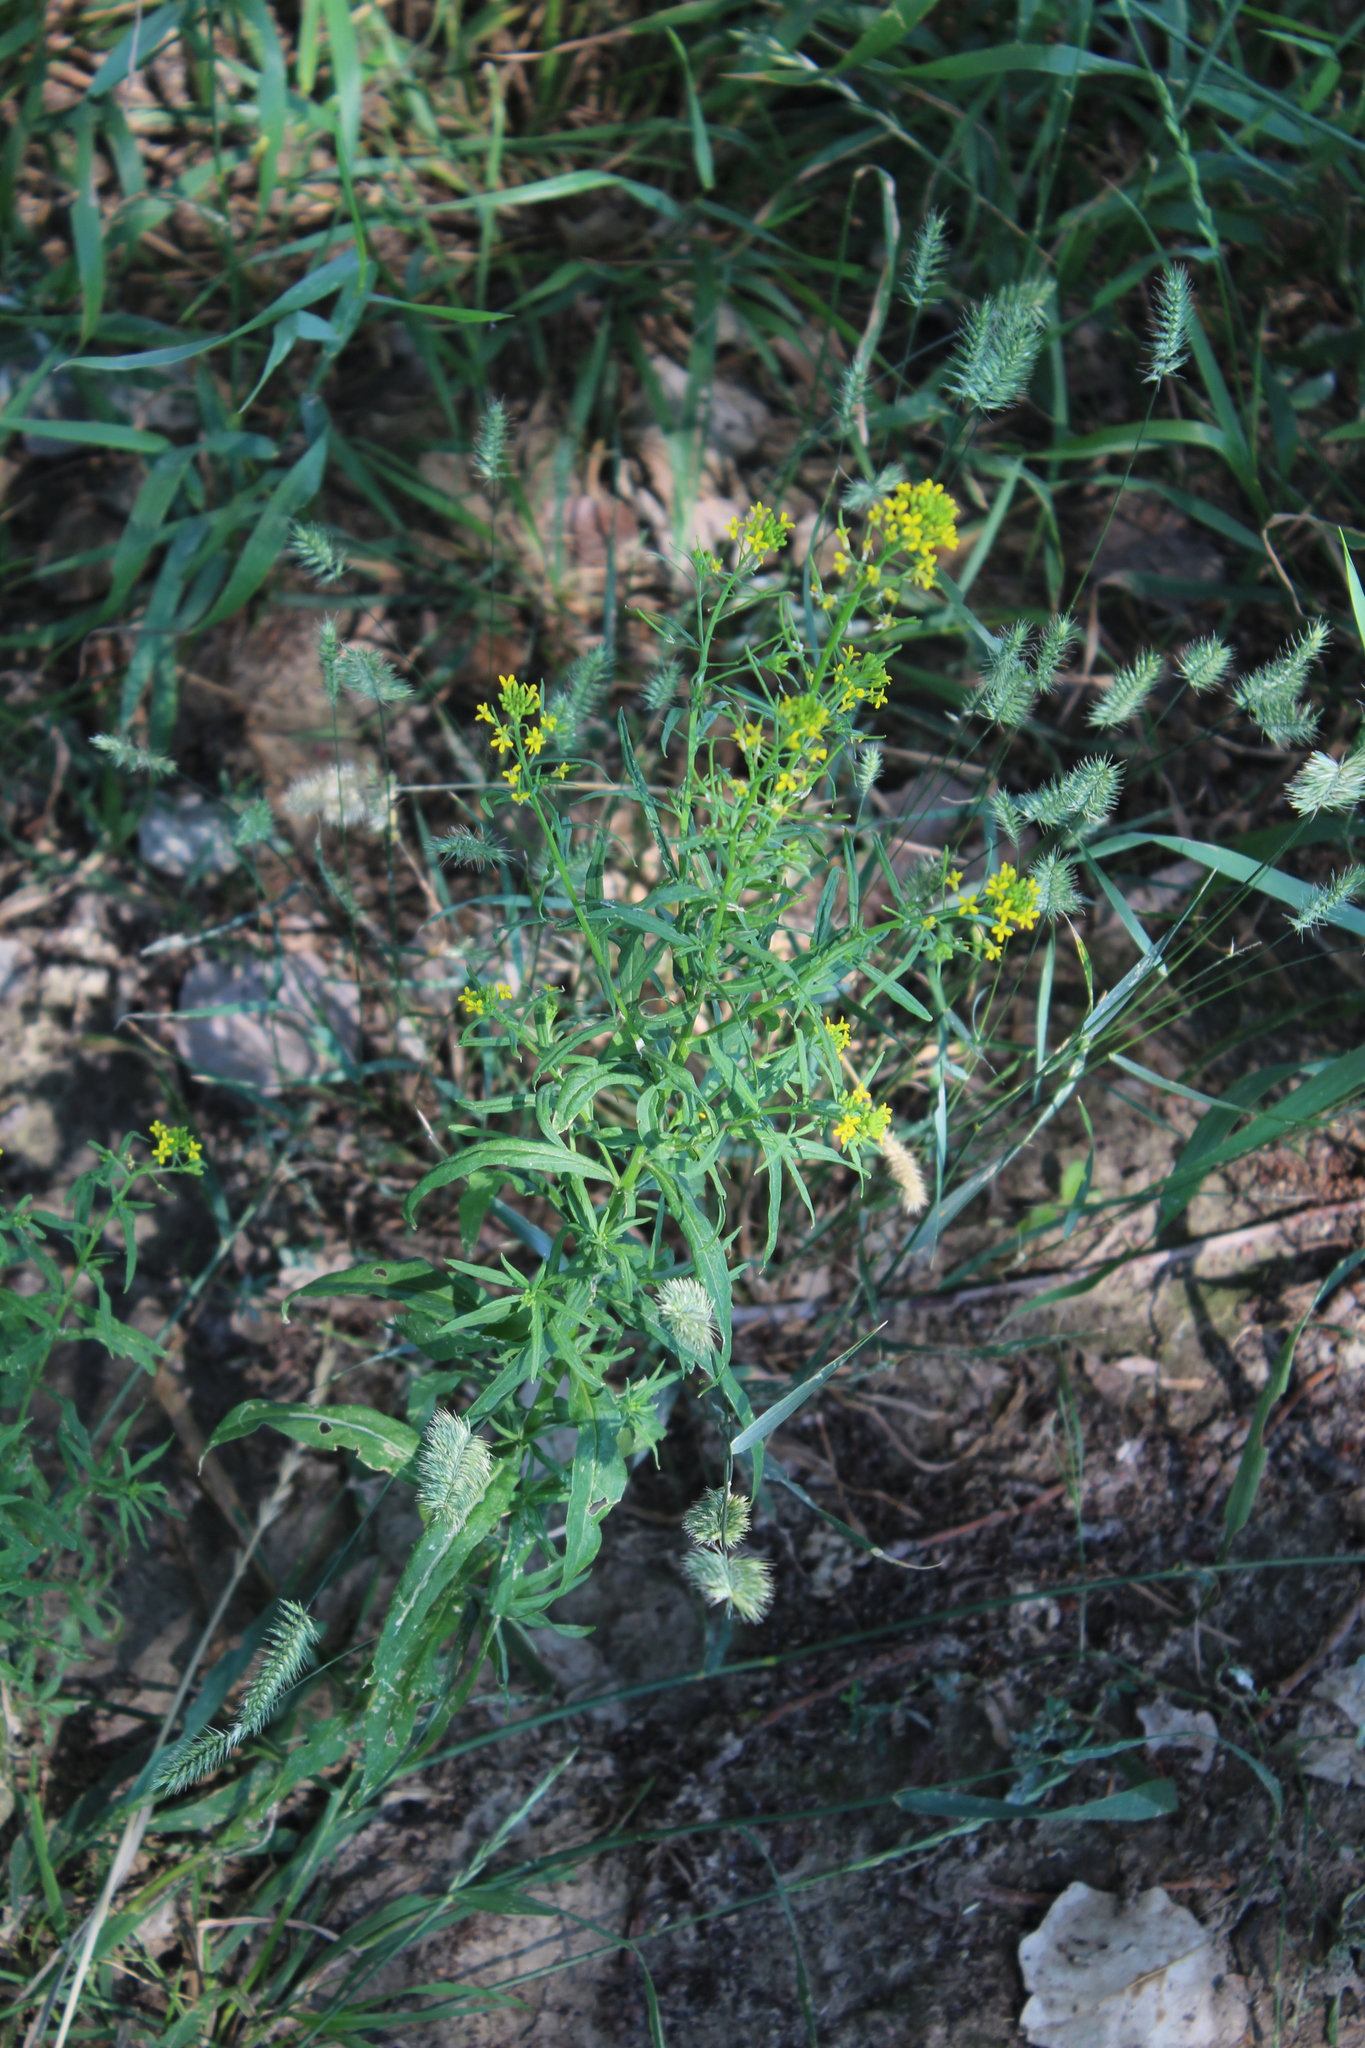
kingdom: Plantae
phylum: Tracheophyta
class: Magnoliopsida
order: Brassicales
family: Brassicaceae
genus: Erysimum
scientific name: Erysimum cheiranthoides
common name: Treacle mustard
